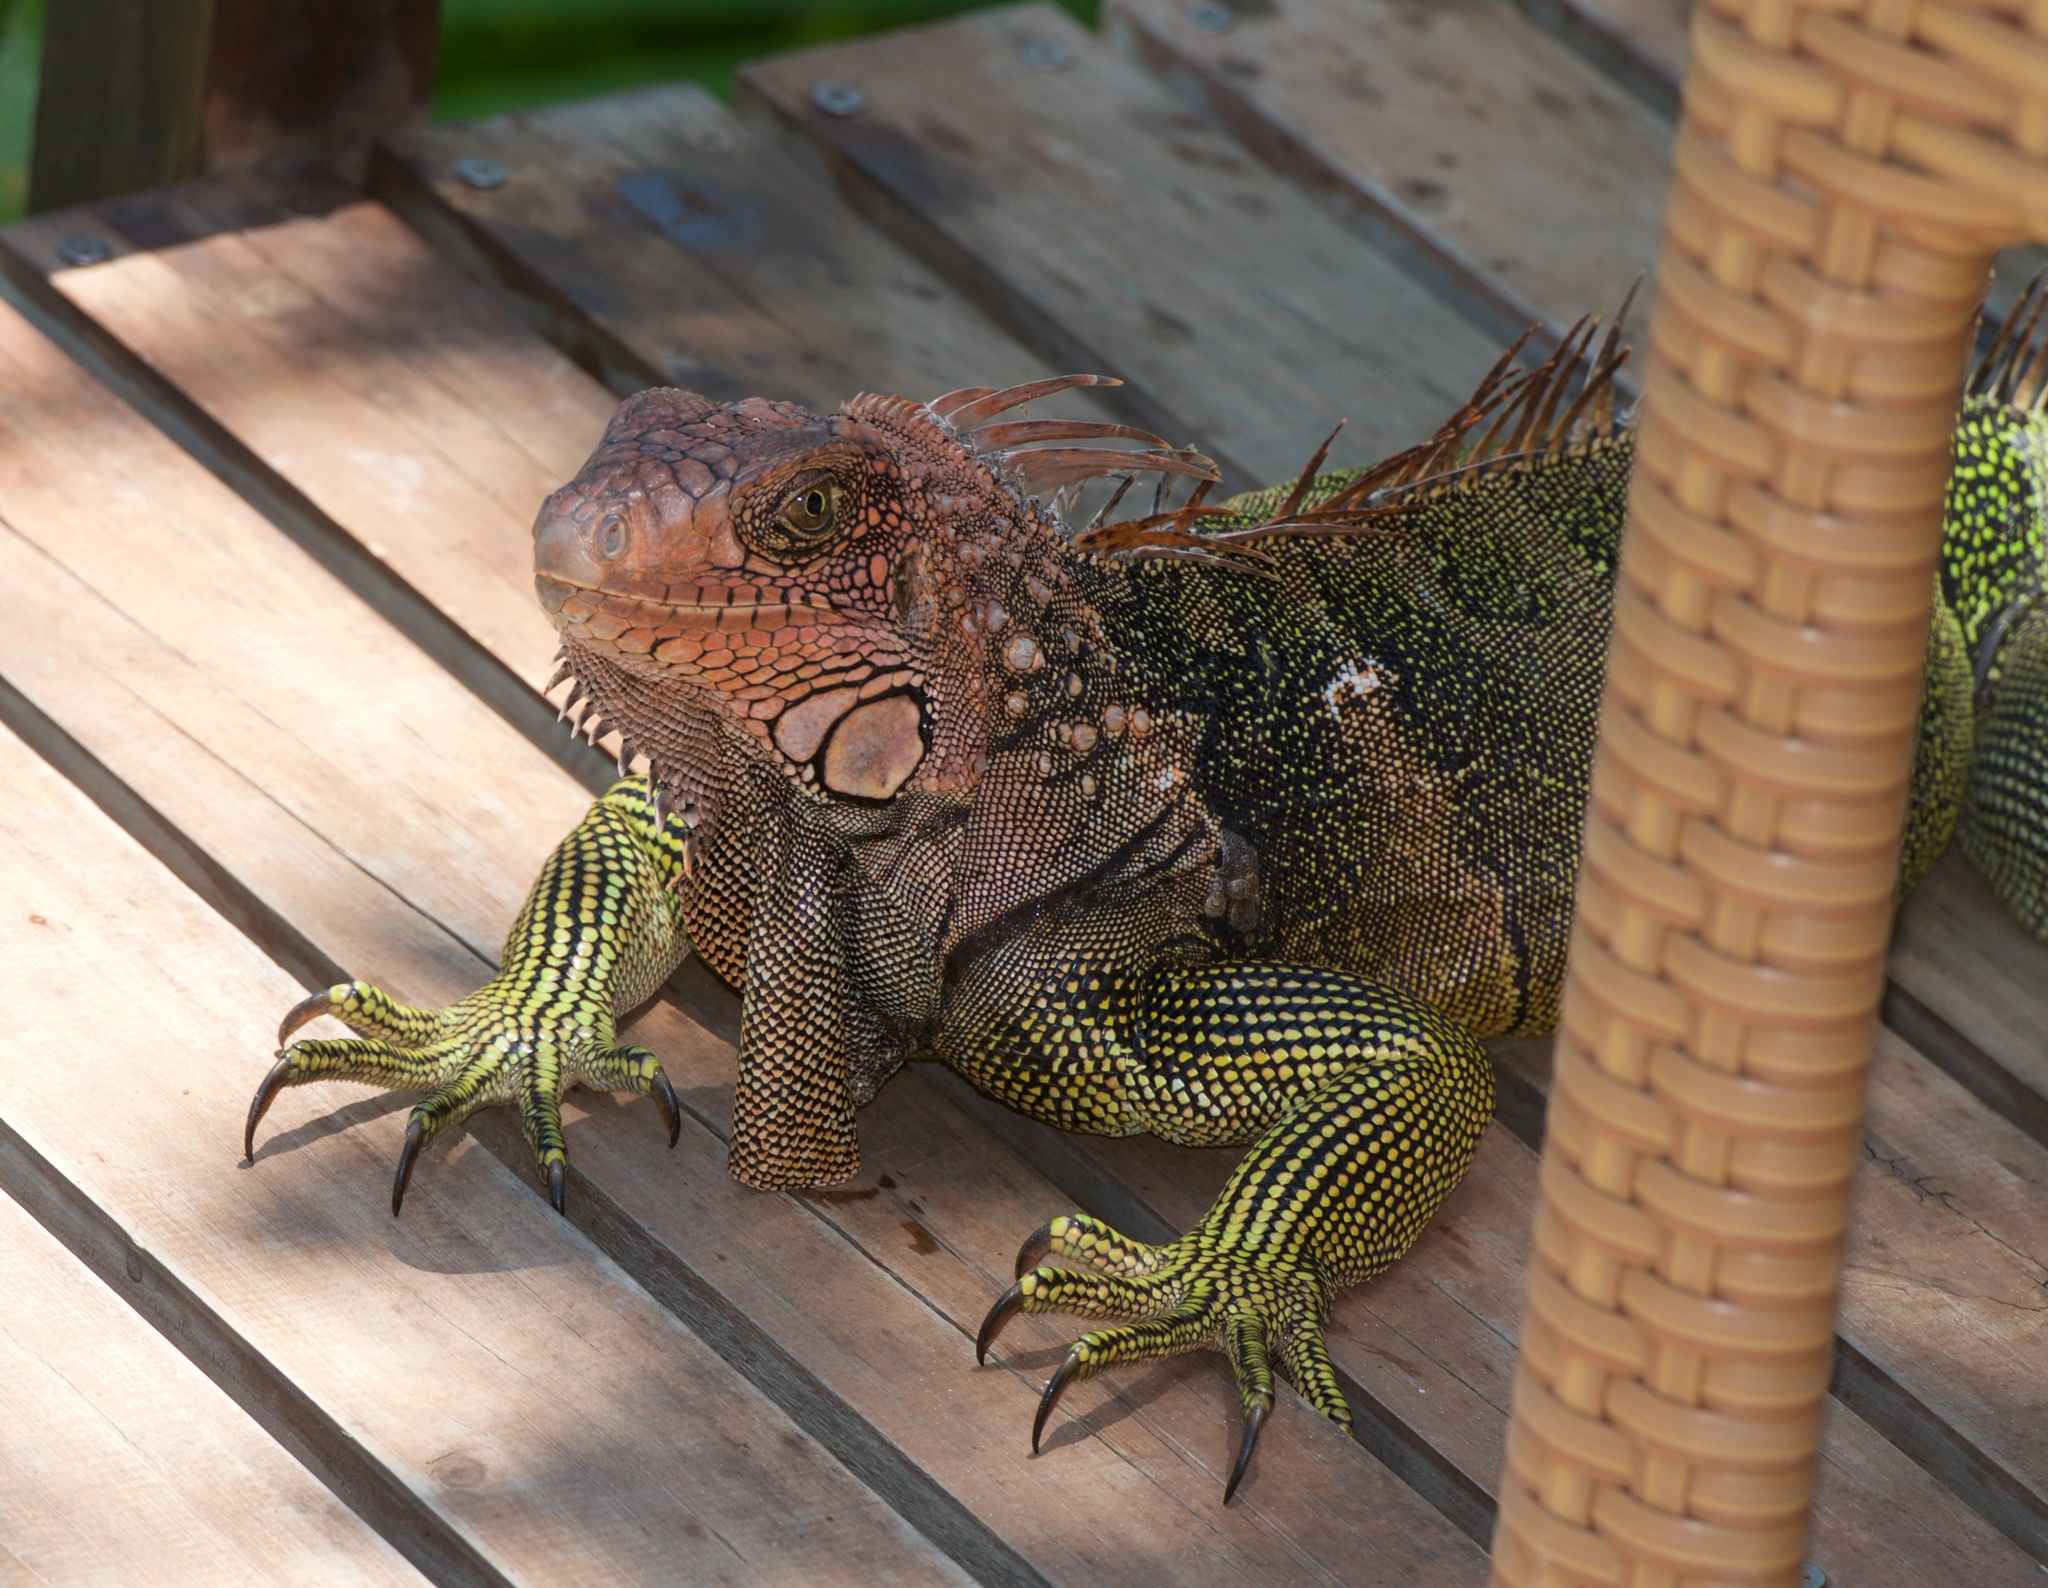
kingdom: Animalia
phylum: Chordata
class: Squamata
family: Iguanidae
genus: Iguana
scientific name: Iguana iguana
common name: Green iguana
